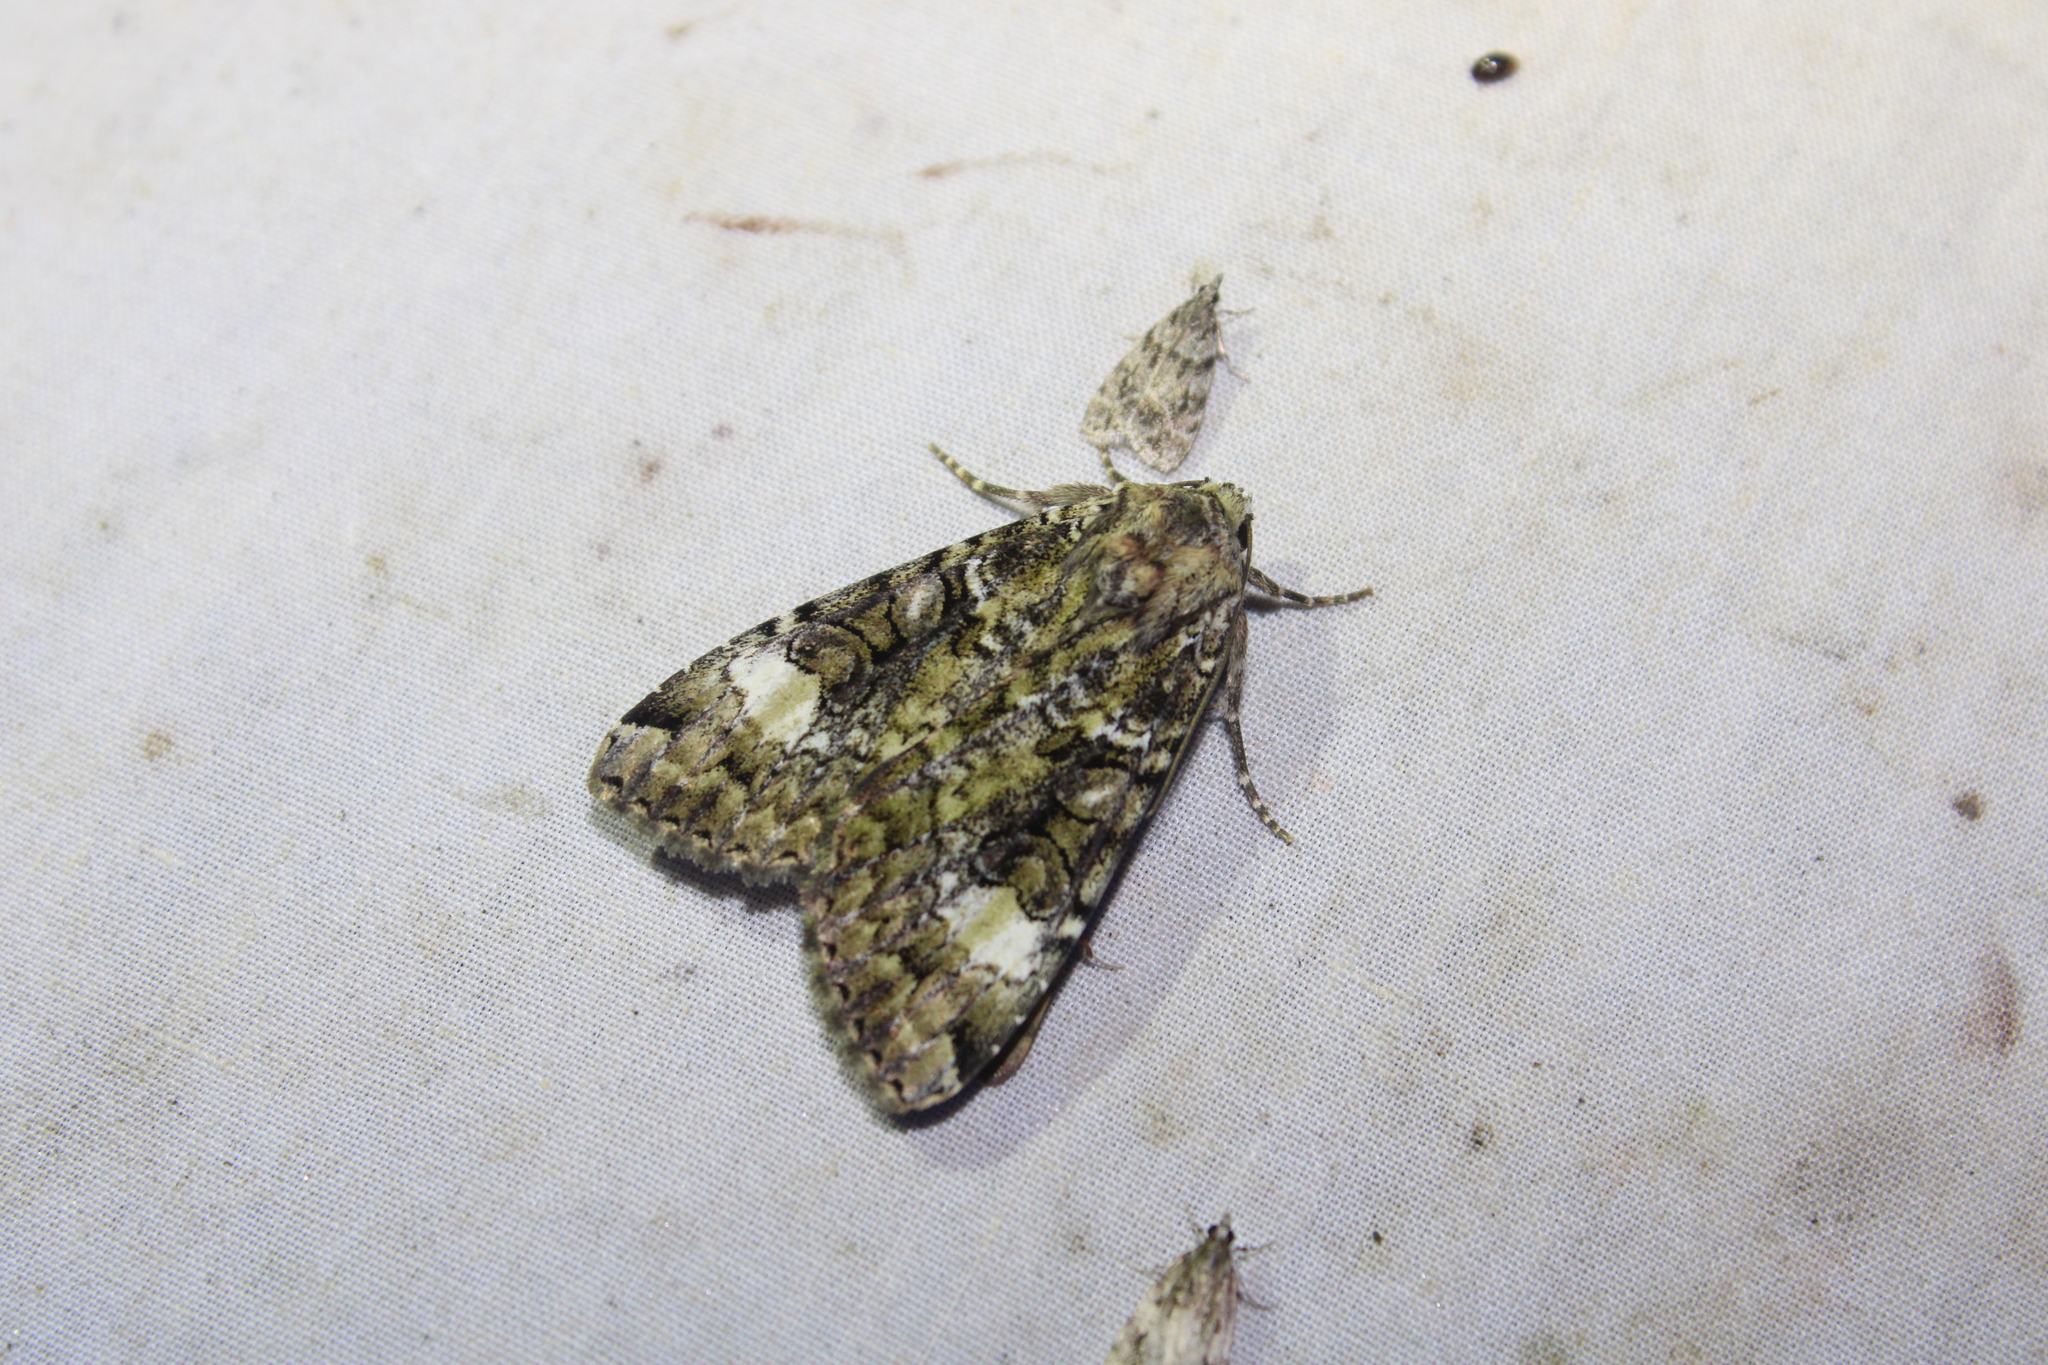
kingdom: Animalia
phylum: Arthropoda
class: Insecta
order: Lepidoptera
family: Noctuidae
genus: Anaplectoides
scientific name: Anaplectoides prasina
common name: Green arches
